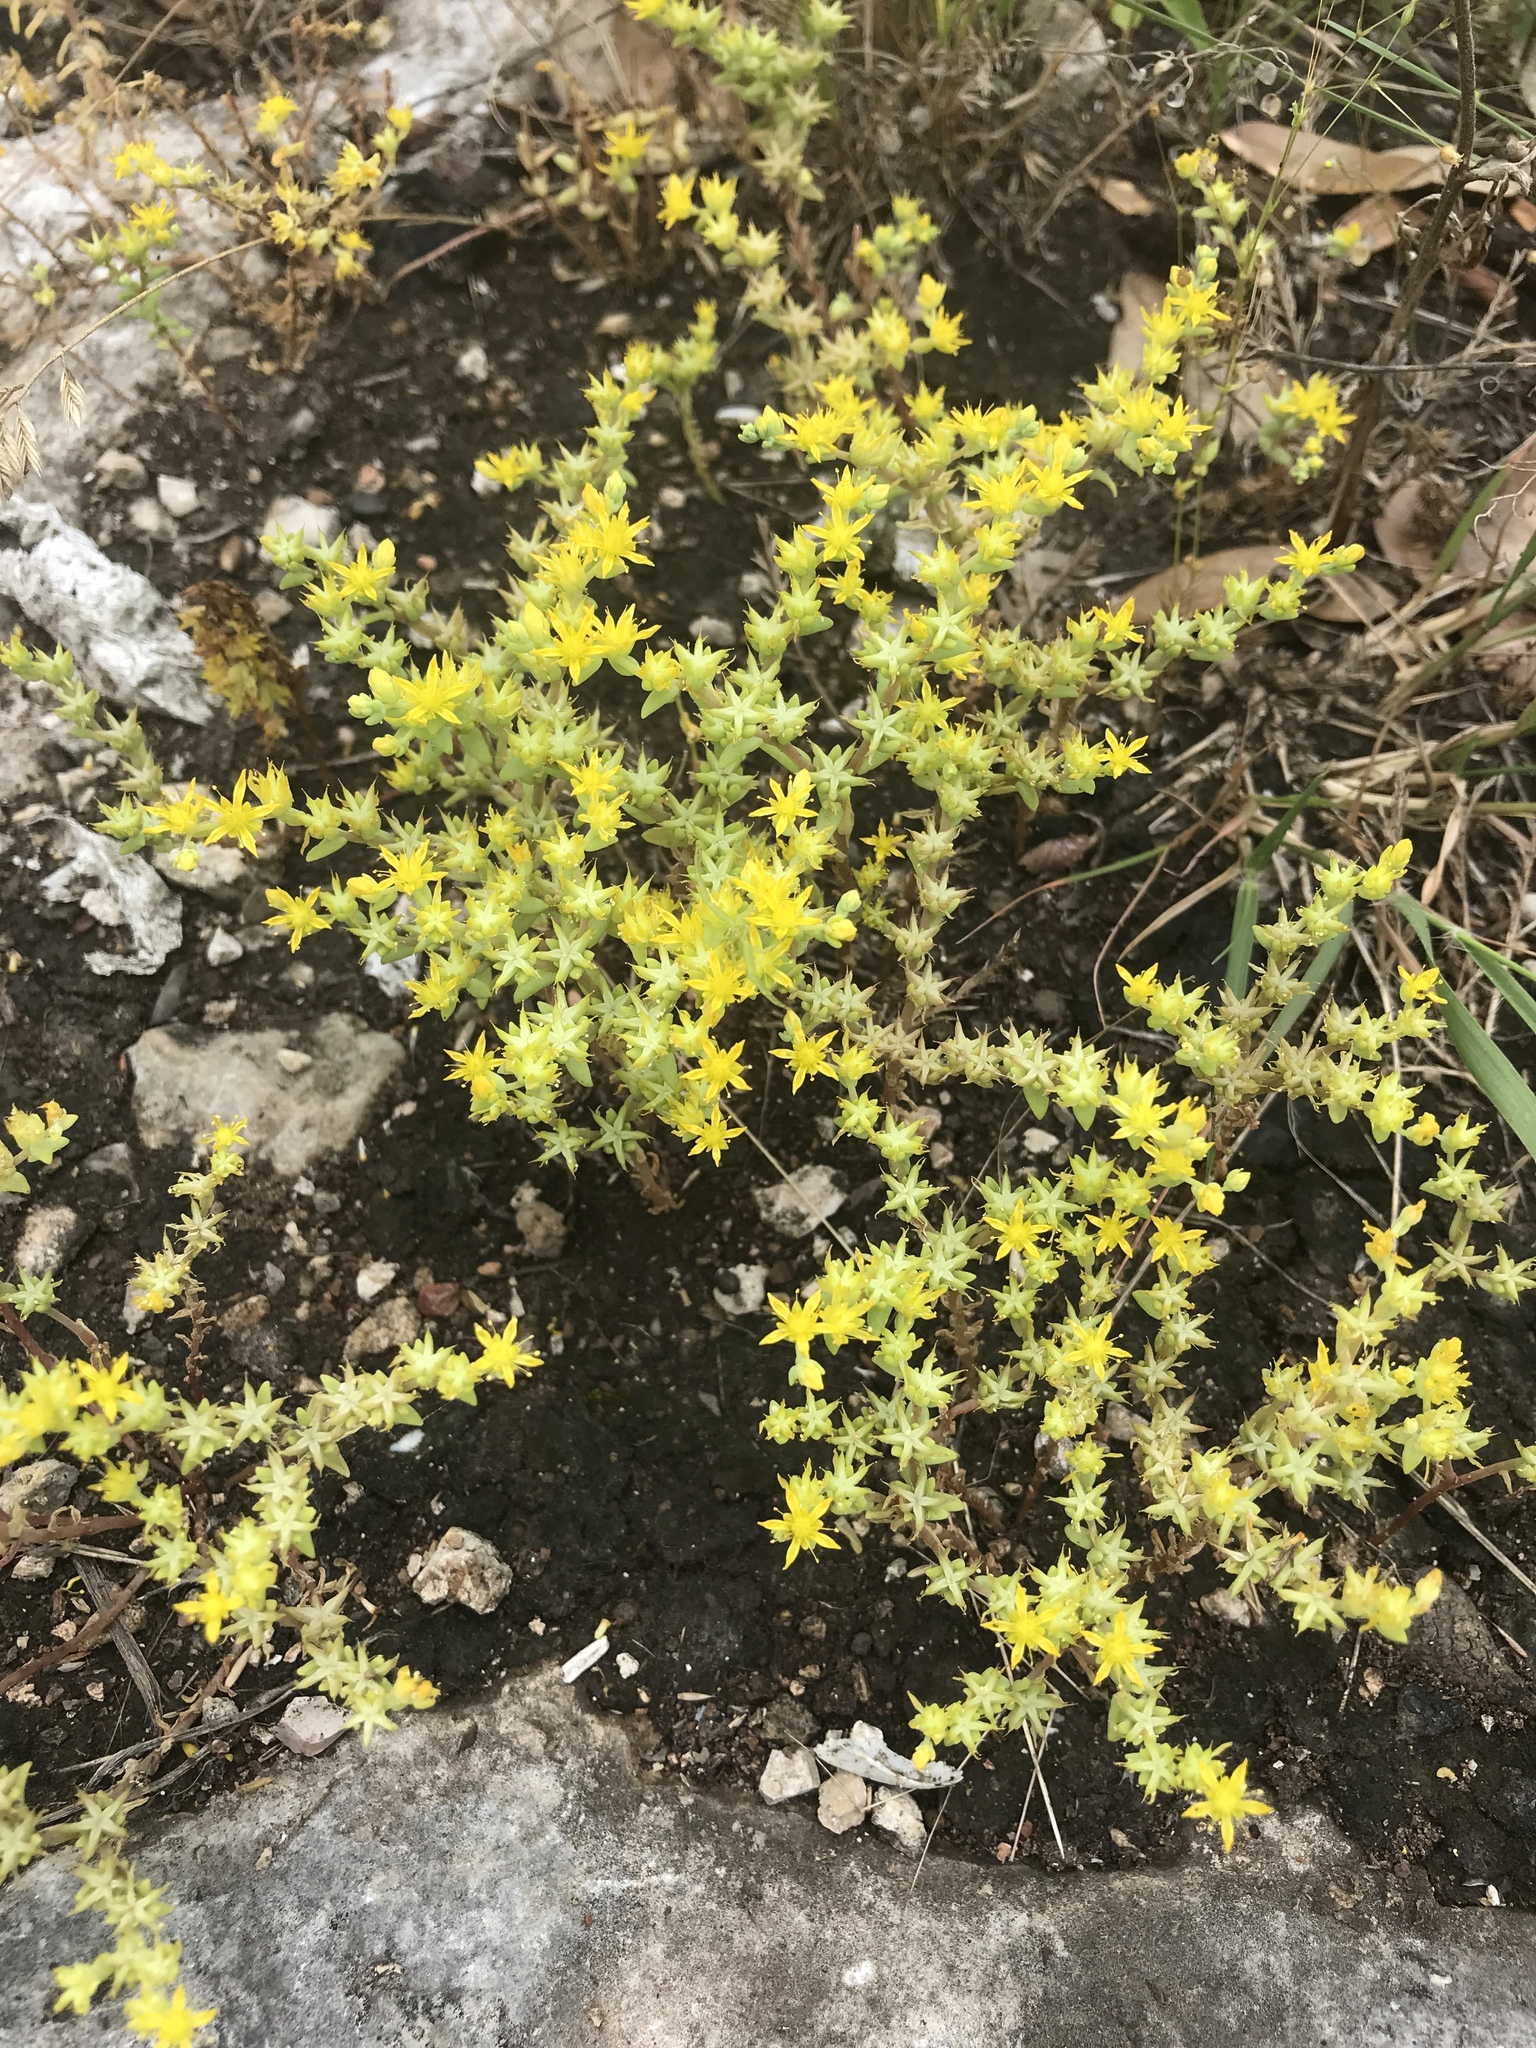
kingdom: Plantae
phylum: Tracheophyta
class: Magnoliopsida
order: Saxifragales
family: Crassulaceae
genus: Sedum
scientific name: Sedum nuttallii
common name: Yellow stonecrop
